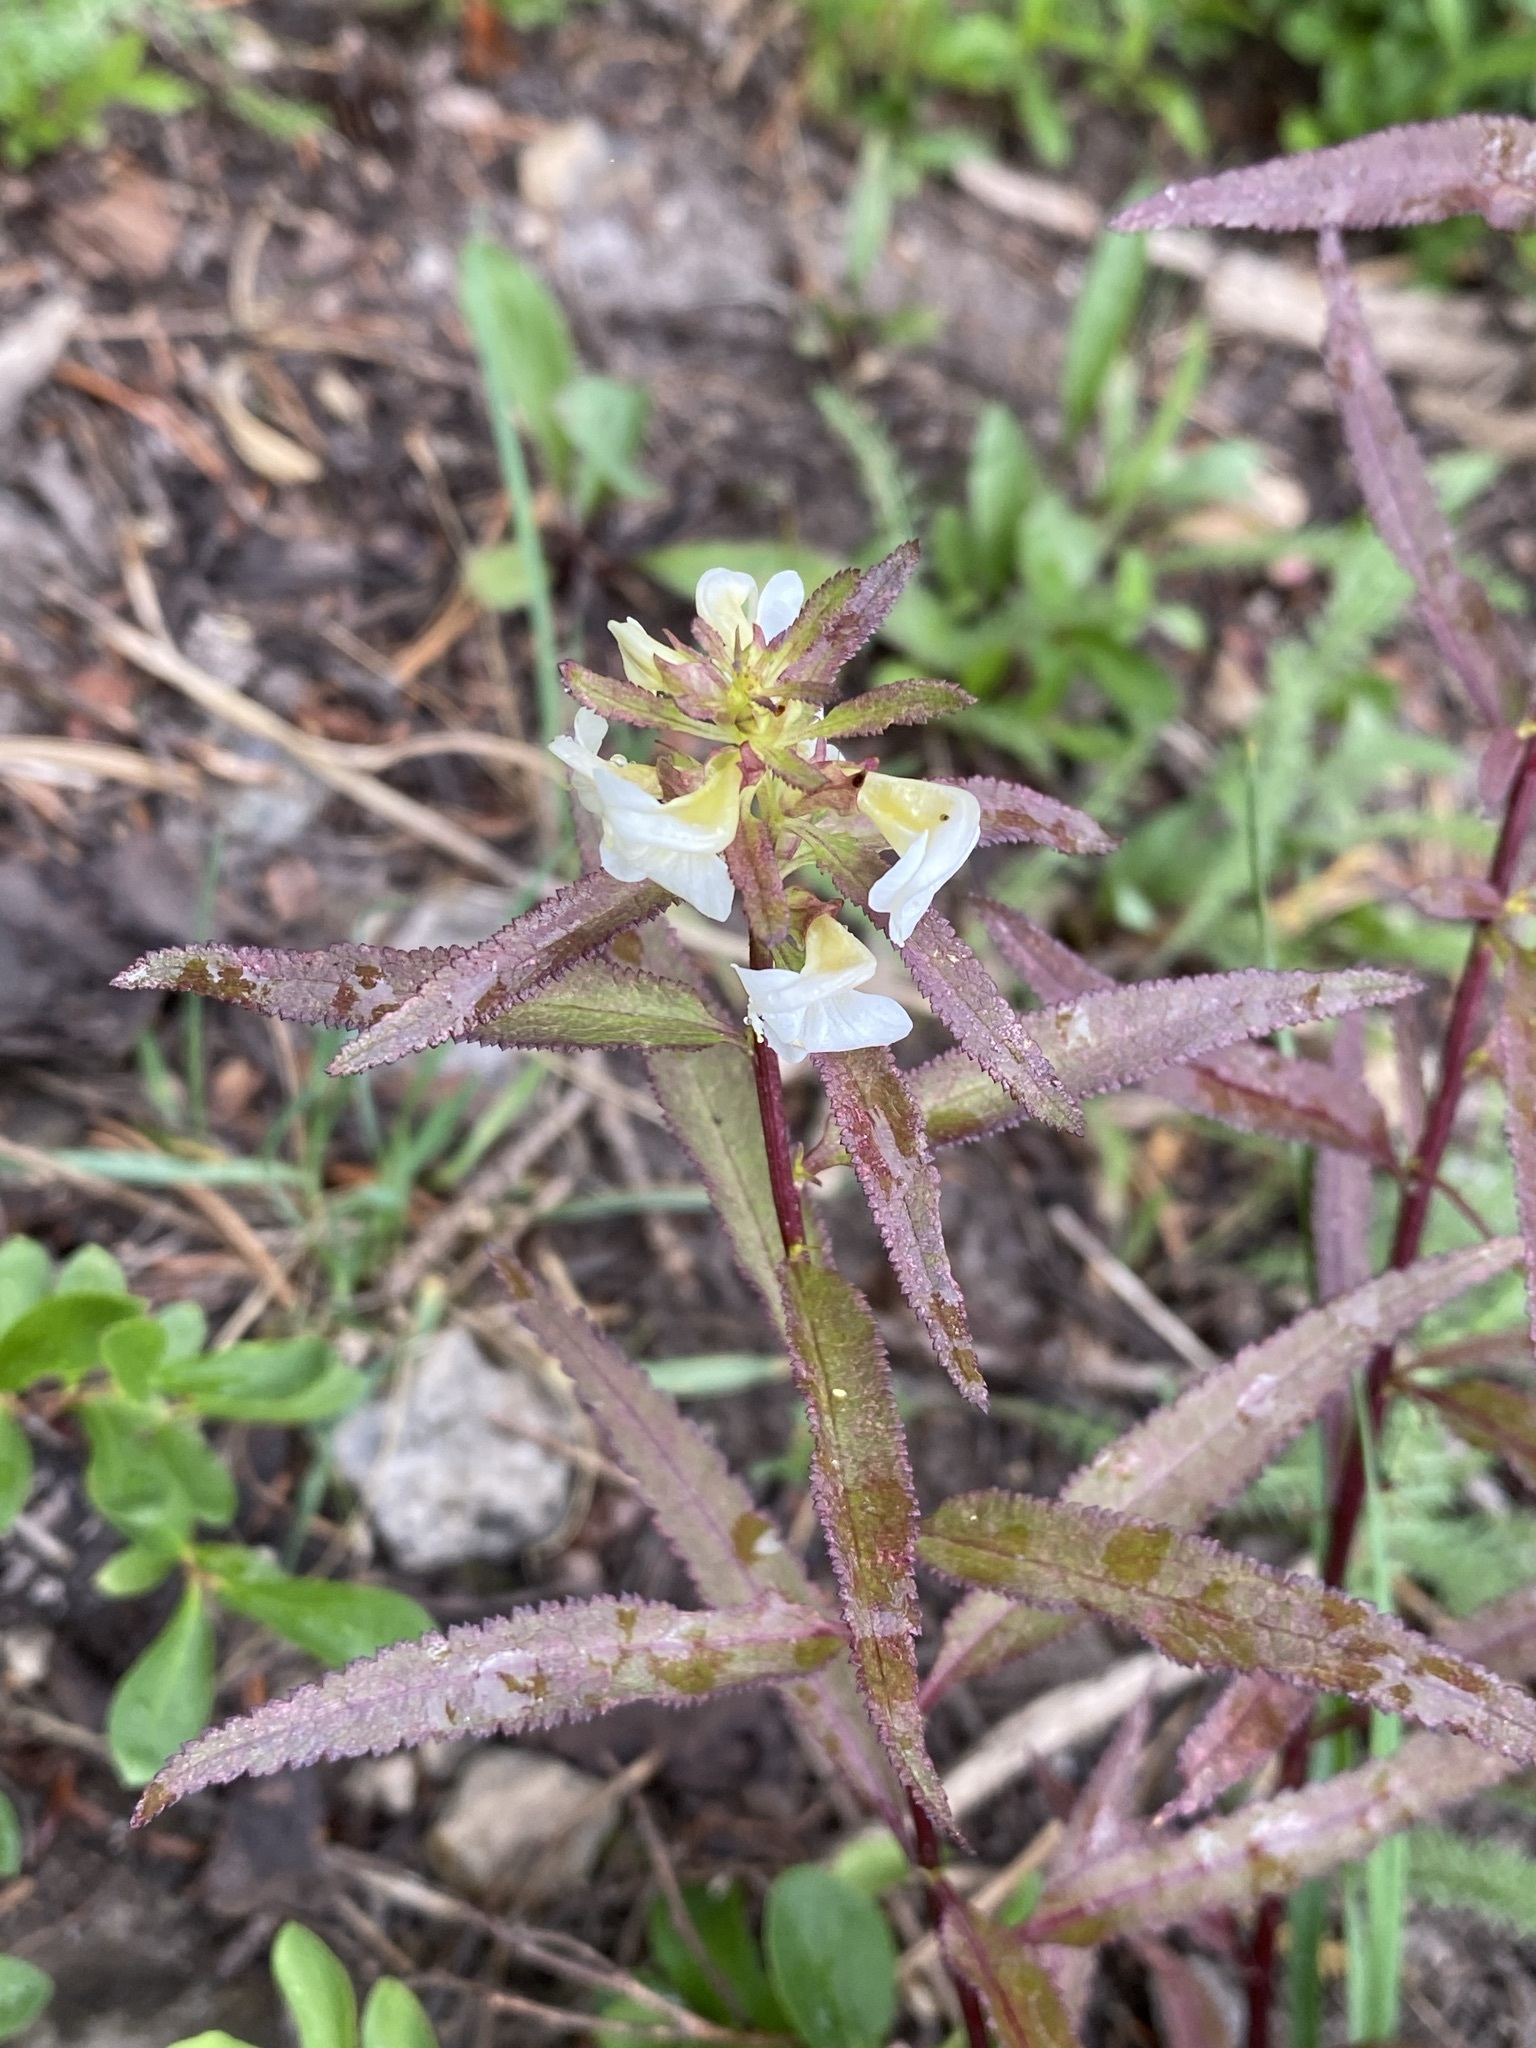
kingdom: Plantae
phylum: Tracheophyta
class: Magnoliopsida
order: Lamiales
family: Orobanchaceae
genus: Pedicularis
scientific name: Pedicularis racemosa
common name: Leafy lousewort
